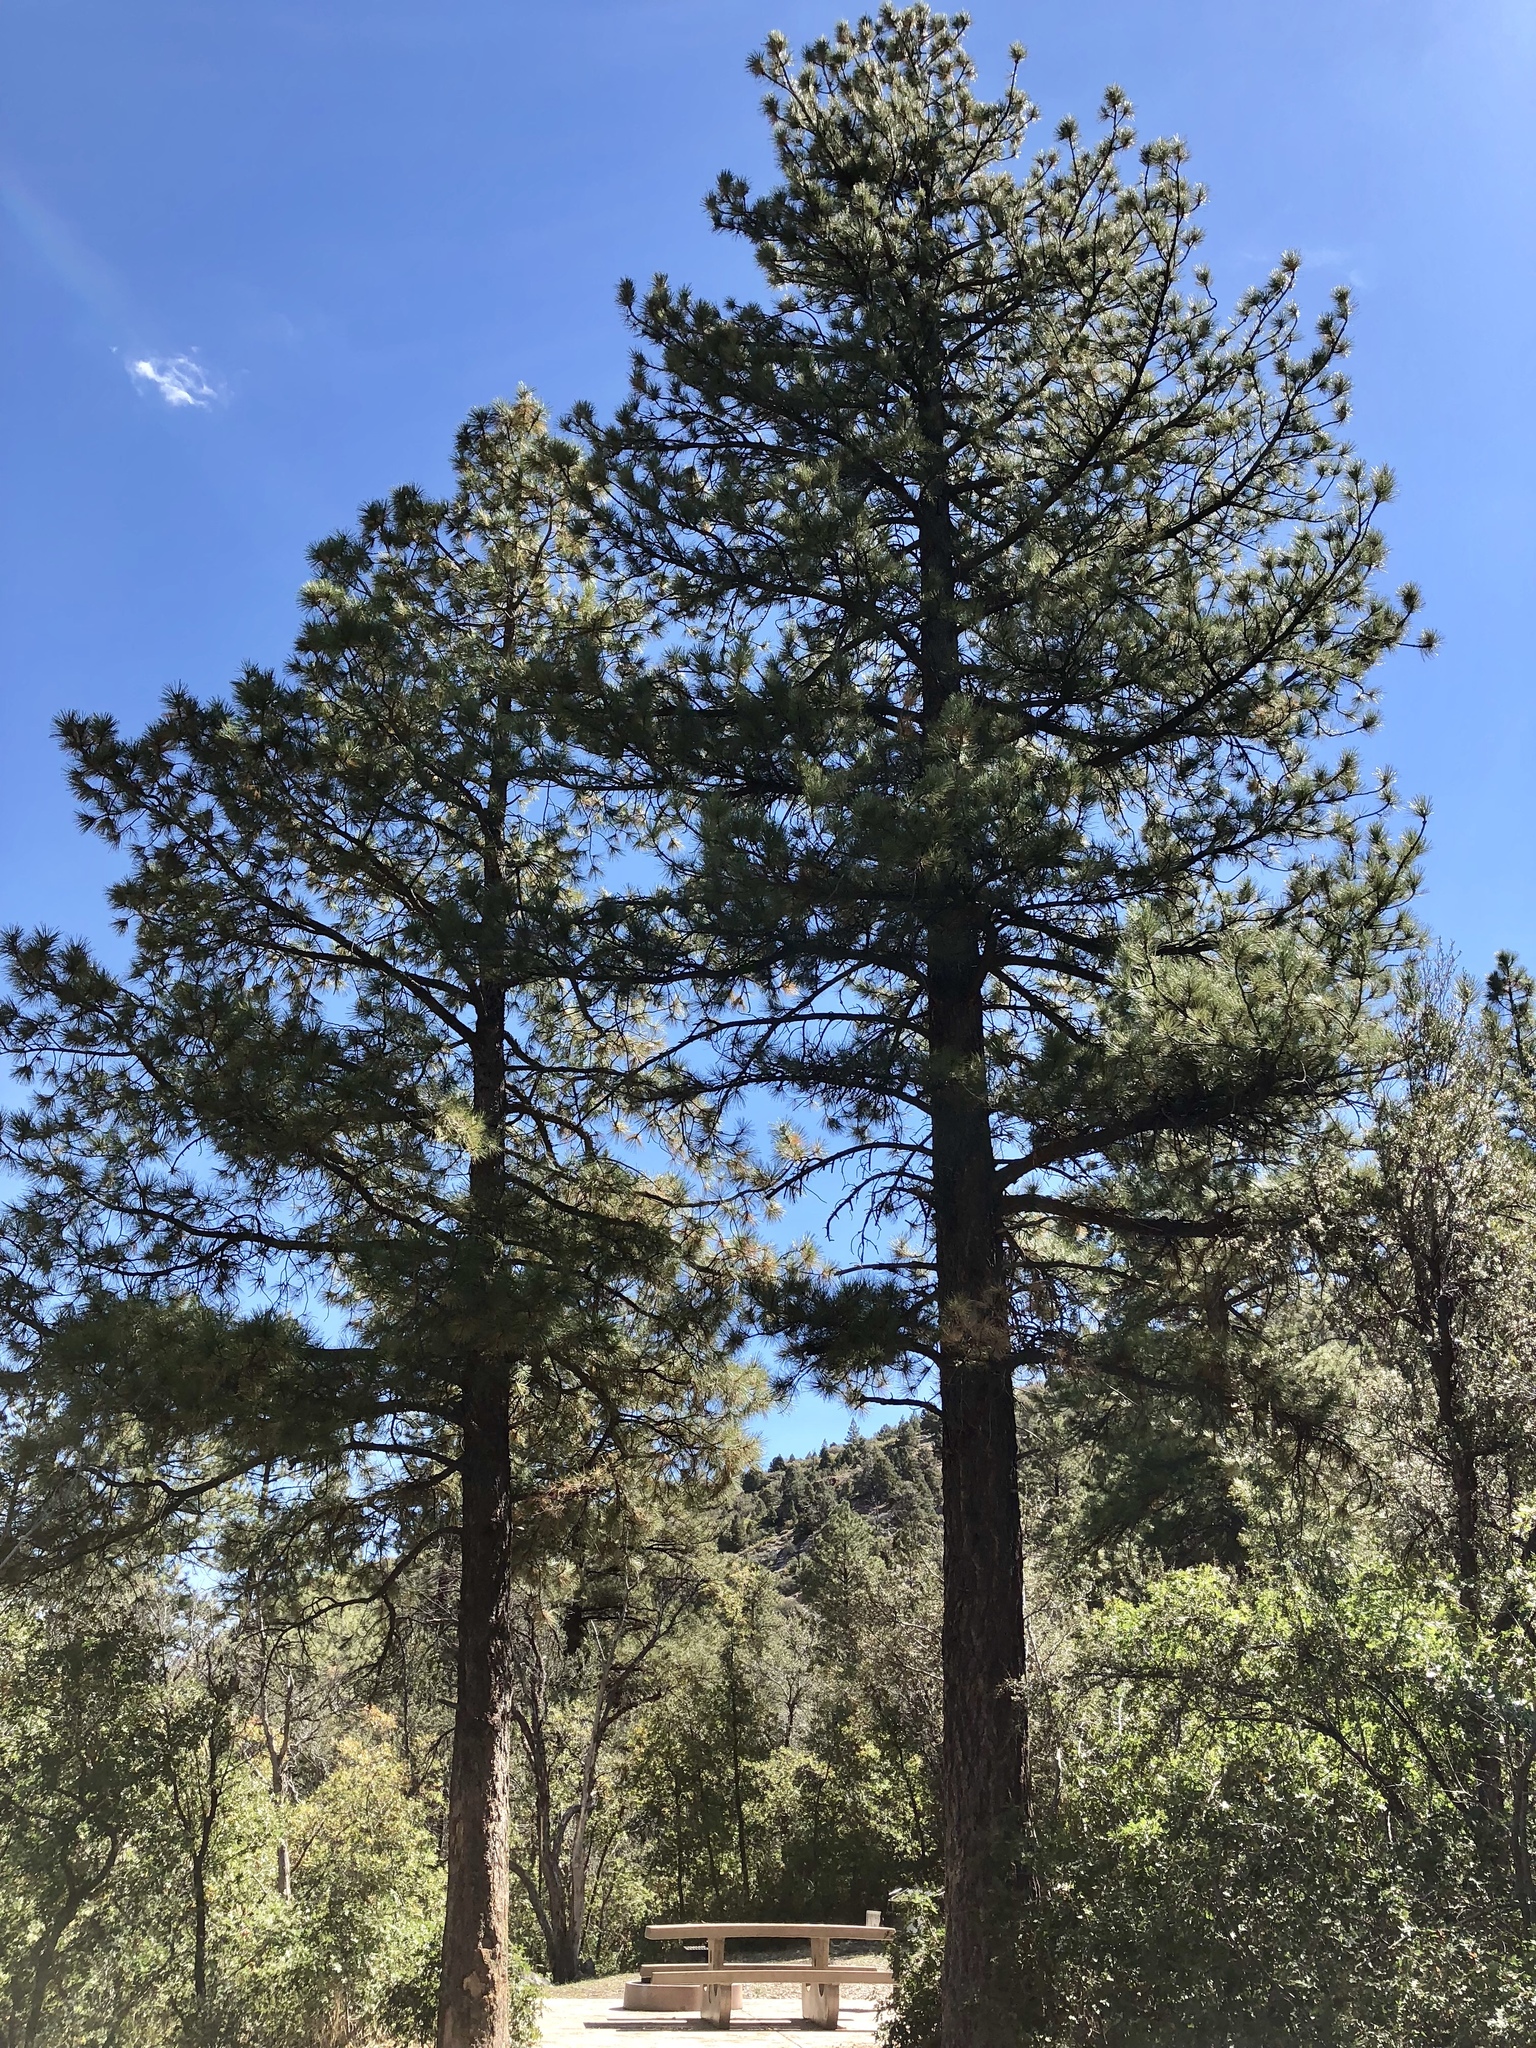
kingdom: Plantae
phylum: Tracheophyta
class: Pinopsida
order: Pinales
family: Pinaceae
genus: Pinus
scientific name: Pinus ponderosa
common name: Western yellow-pine
